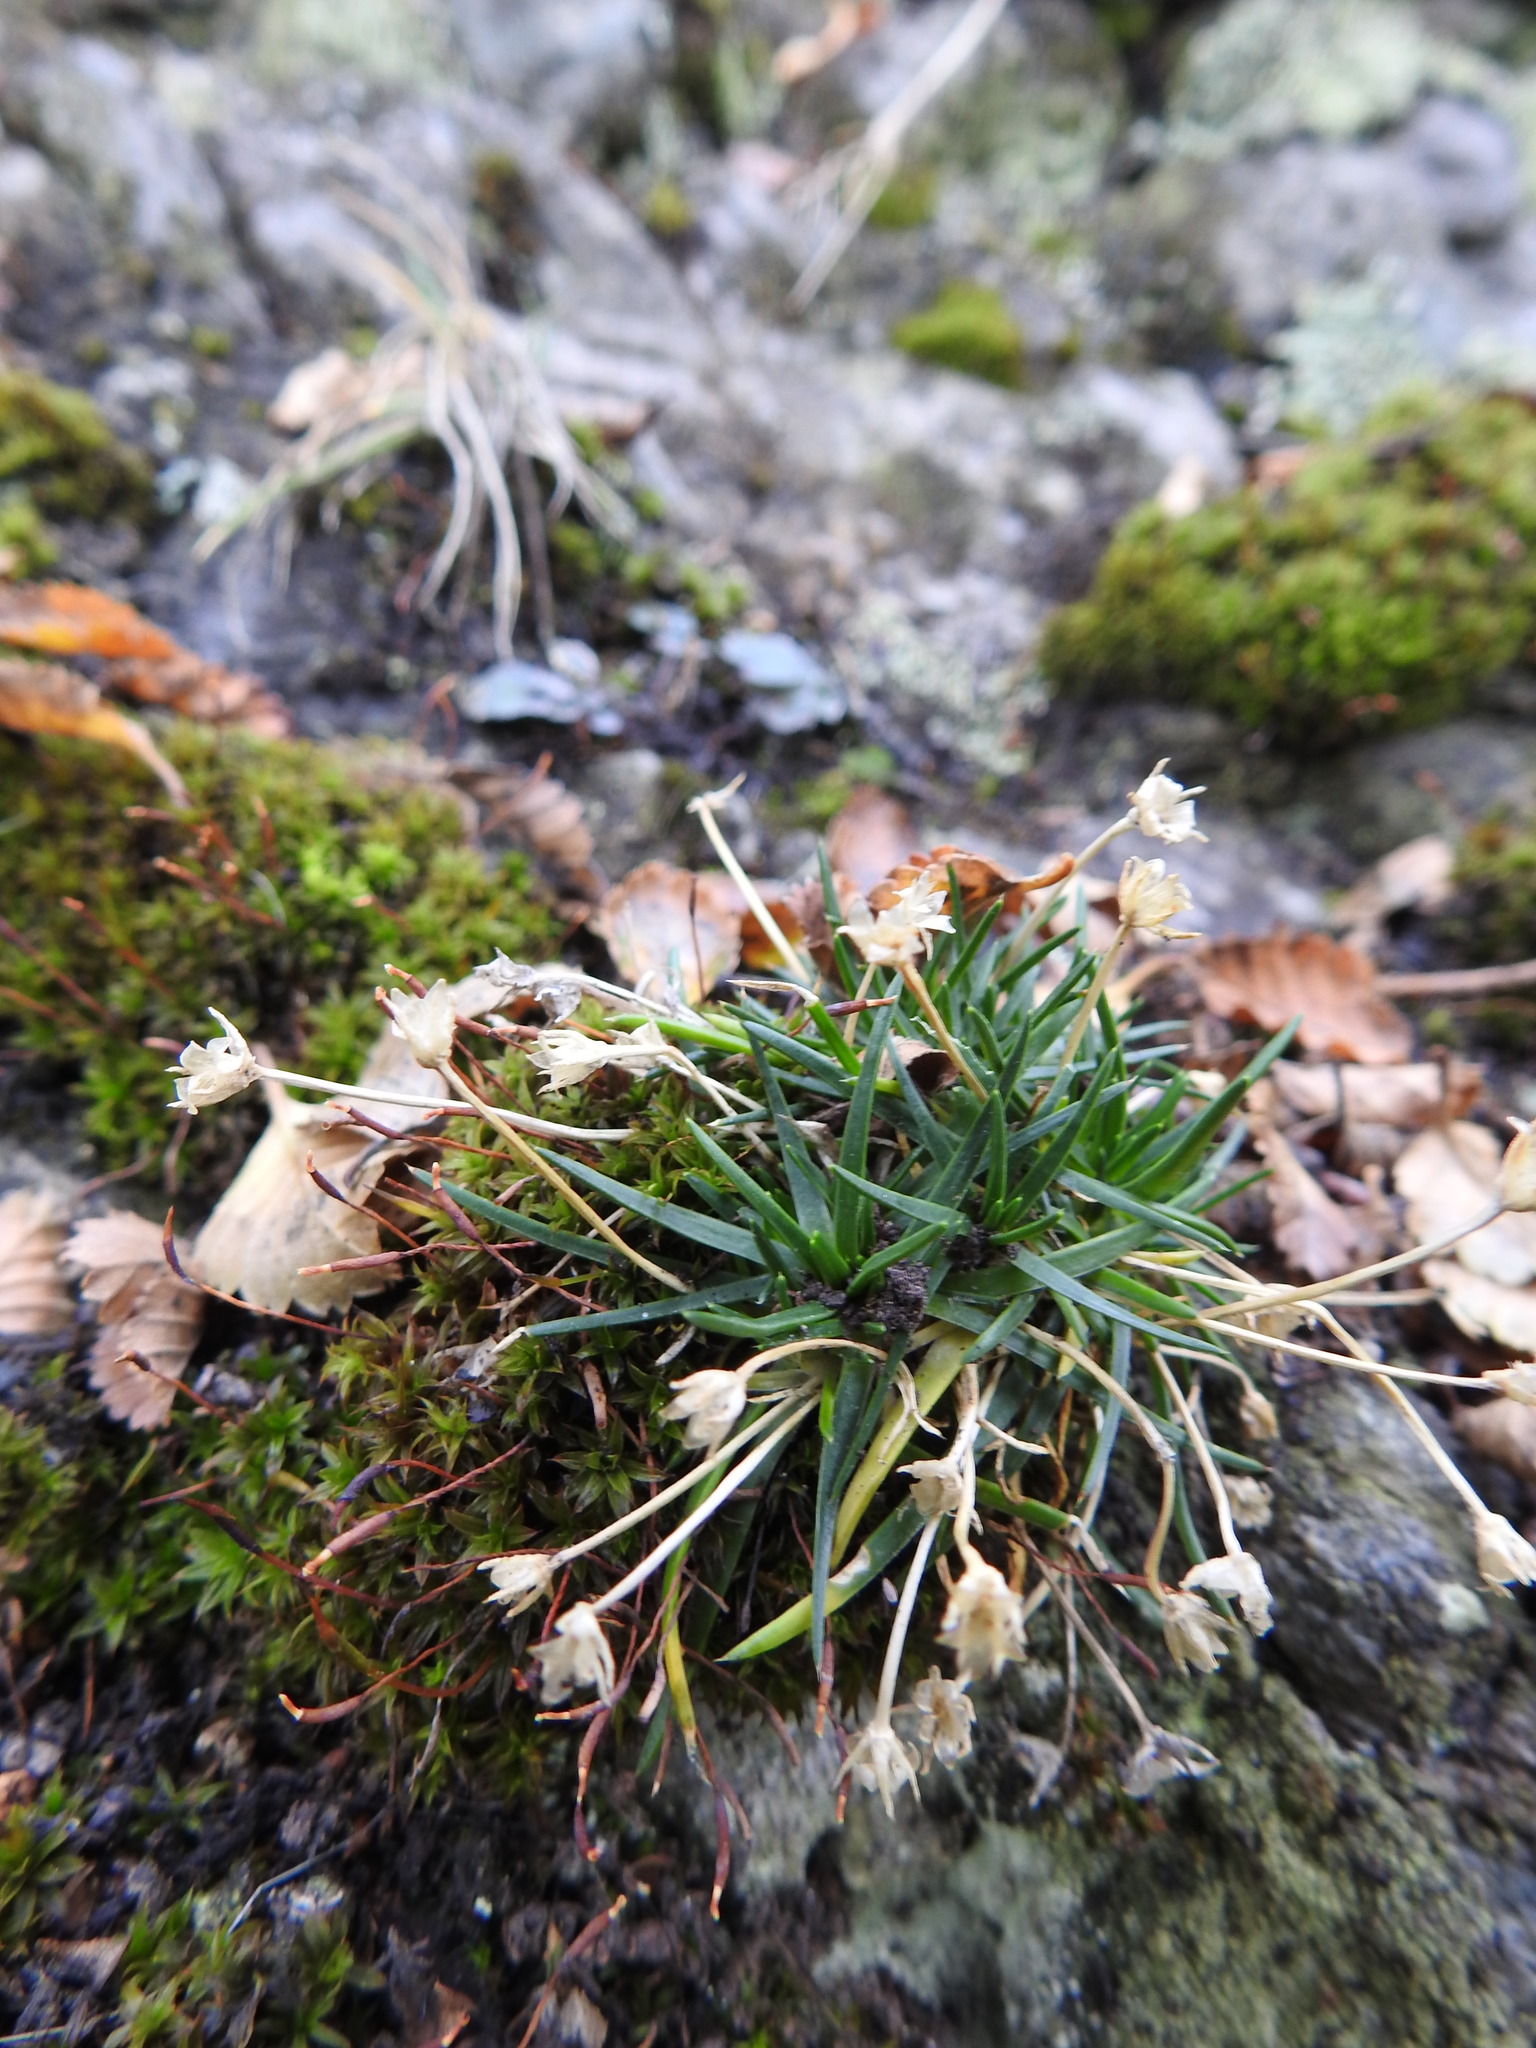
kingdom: Plantae
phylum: Tracheophyta
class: Magnoliopsida
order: Caryophyllales
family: Caryophyllaceae
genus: Colobanthus
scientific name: Colobanthus quitensis
